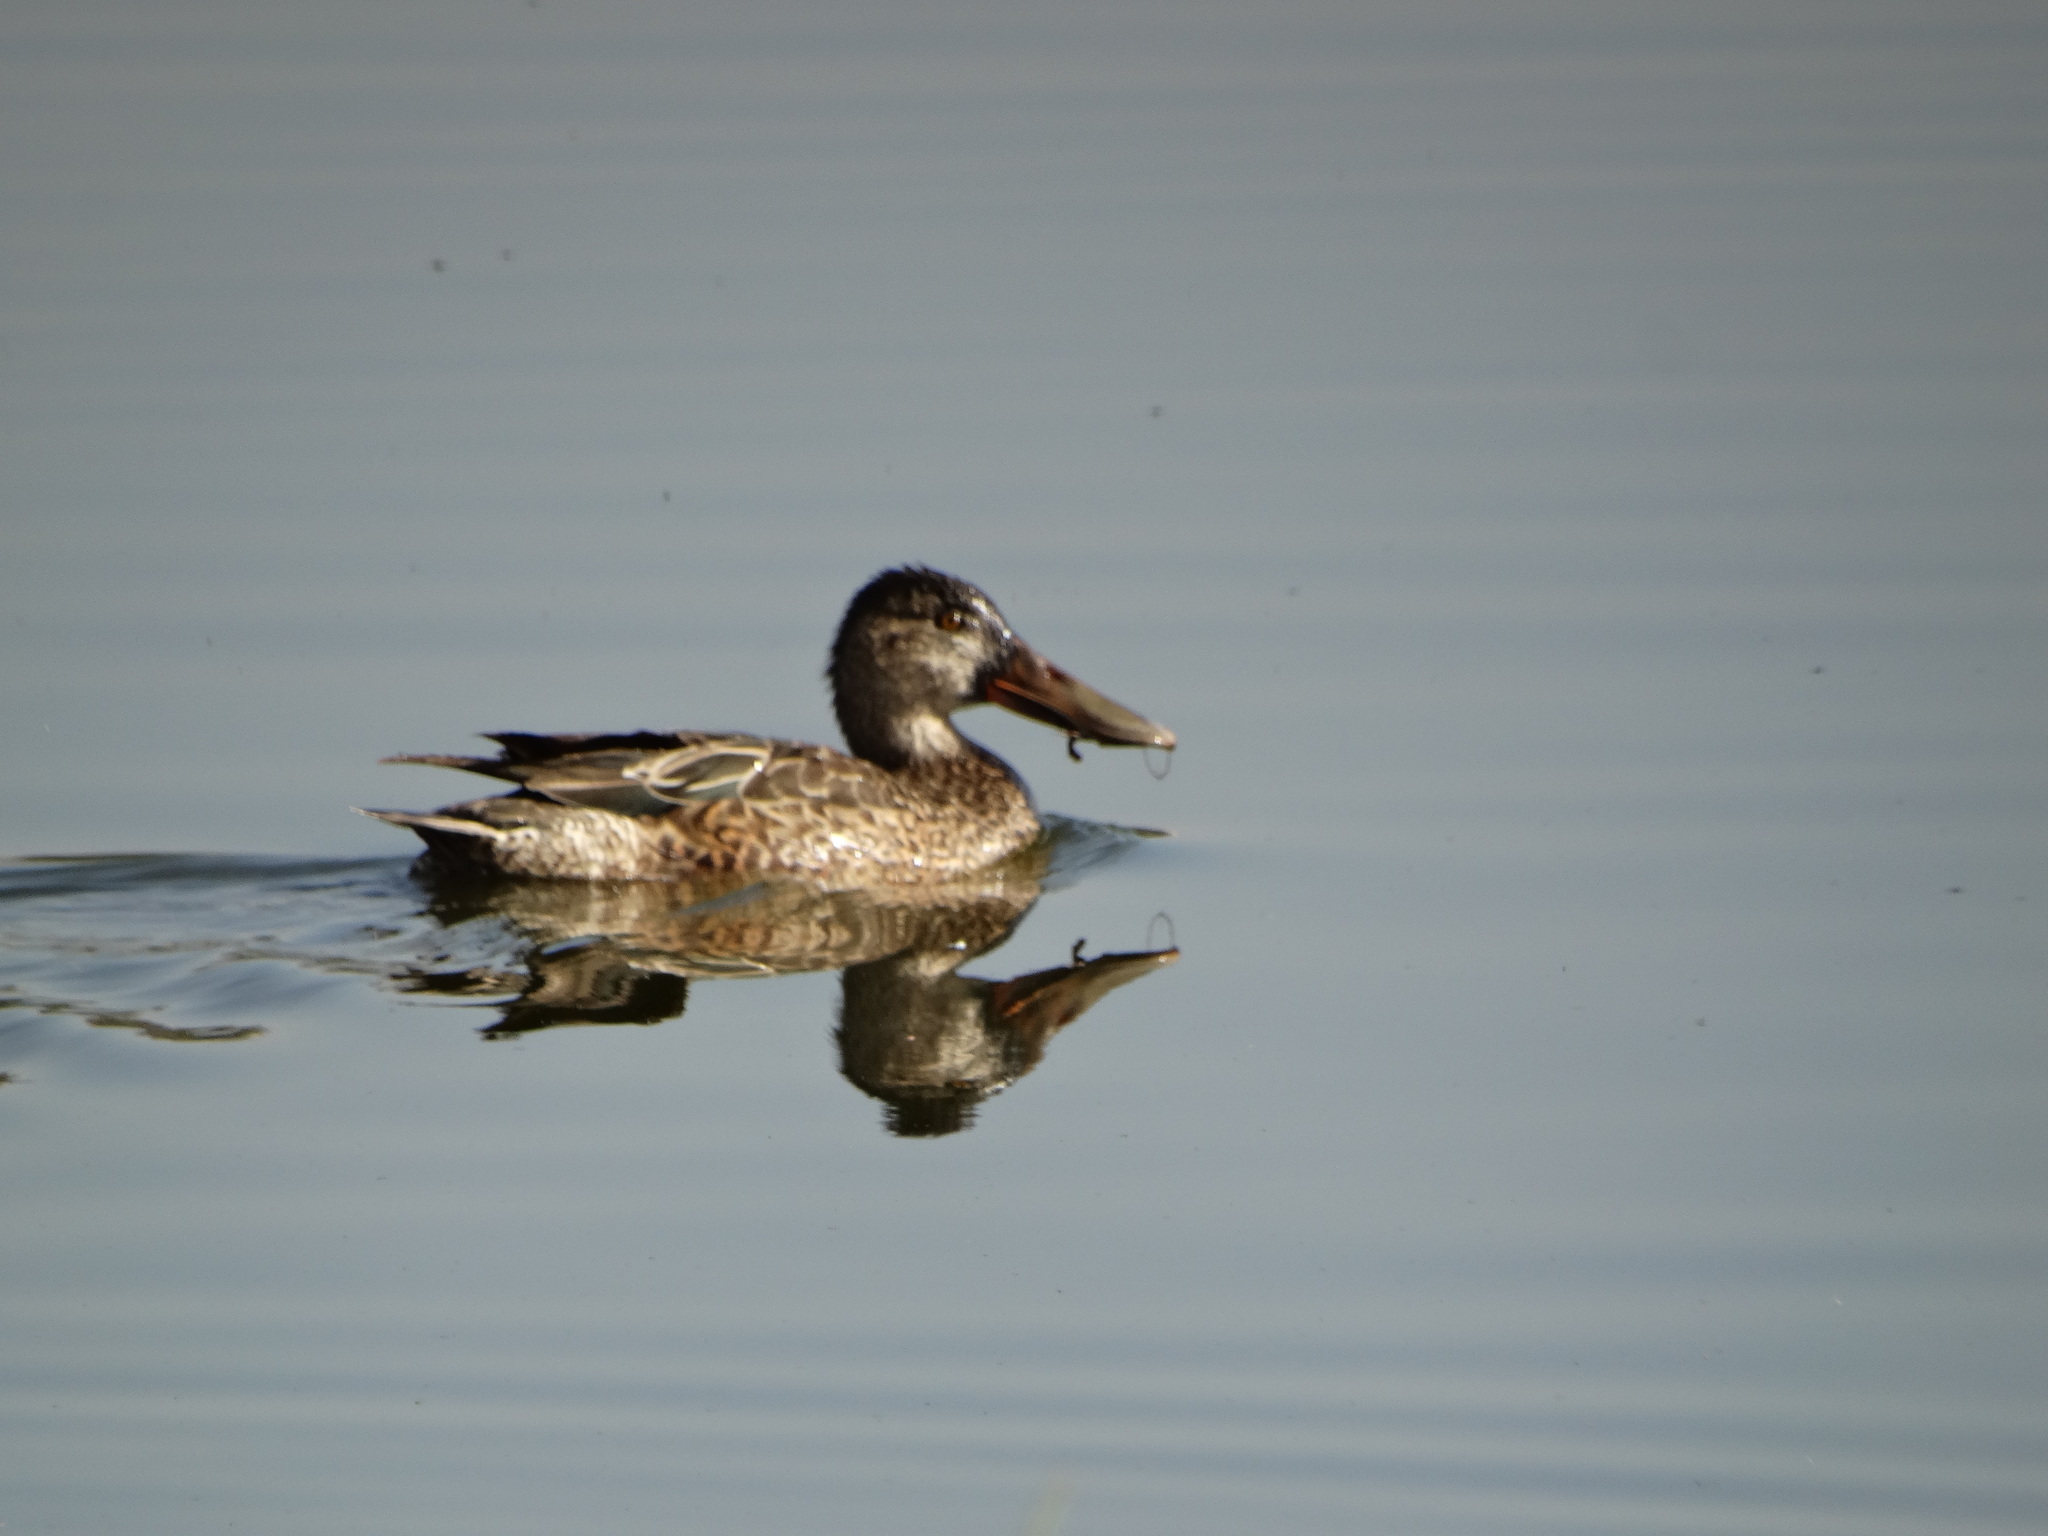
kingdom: Animalia
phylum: Chordata
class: Aves
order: Anseriformes
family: Anatidae
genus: Spatula
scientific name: Spatula clypeata
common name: Northern shoveler
